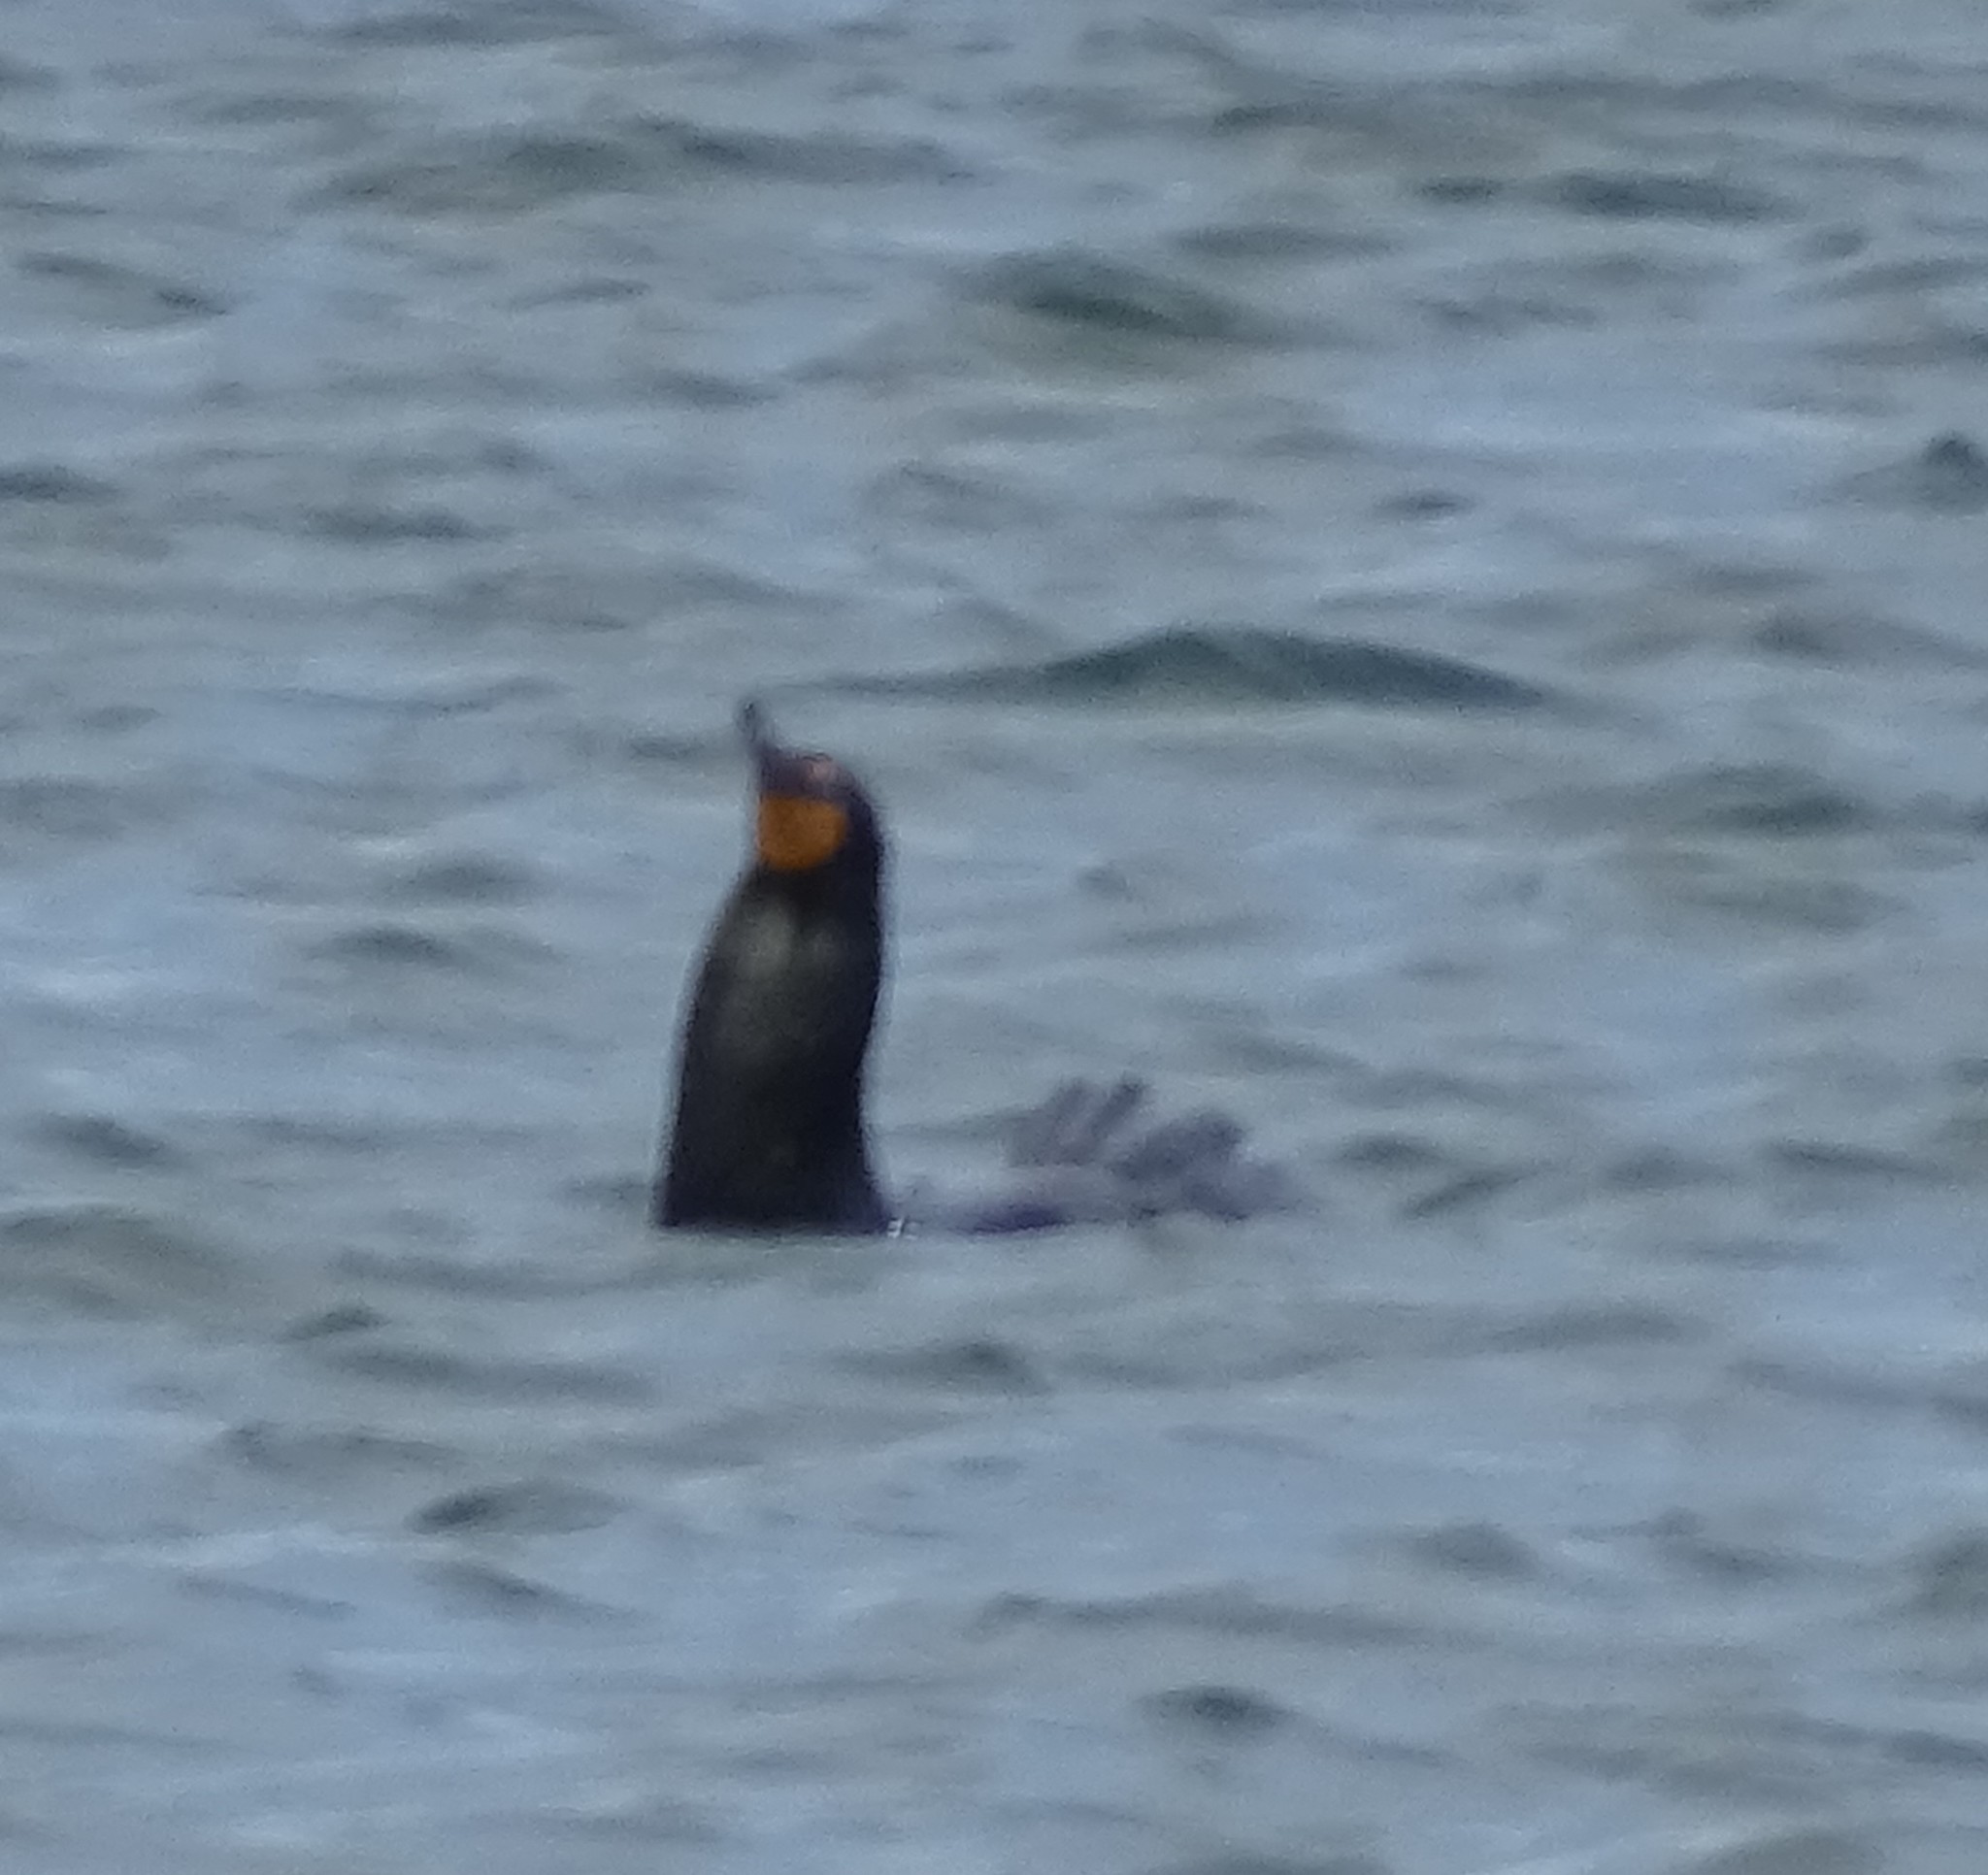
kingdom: Animalia
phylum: Chordata
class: Aves
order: Suliformes
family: Phalacrocoracidae
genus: Phalacrocorax
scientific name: Phalacrocorax auritus
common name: Double-crested cormorant
